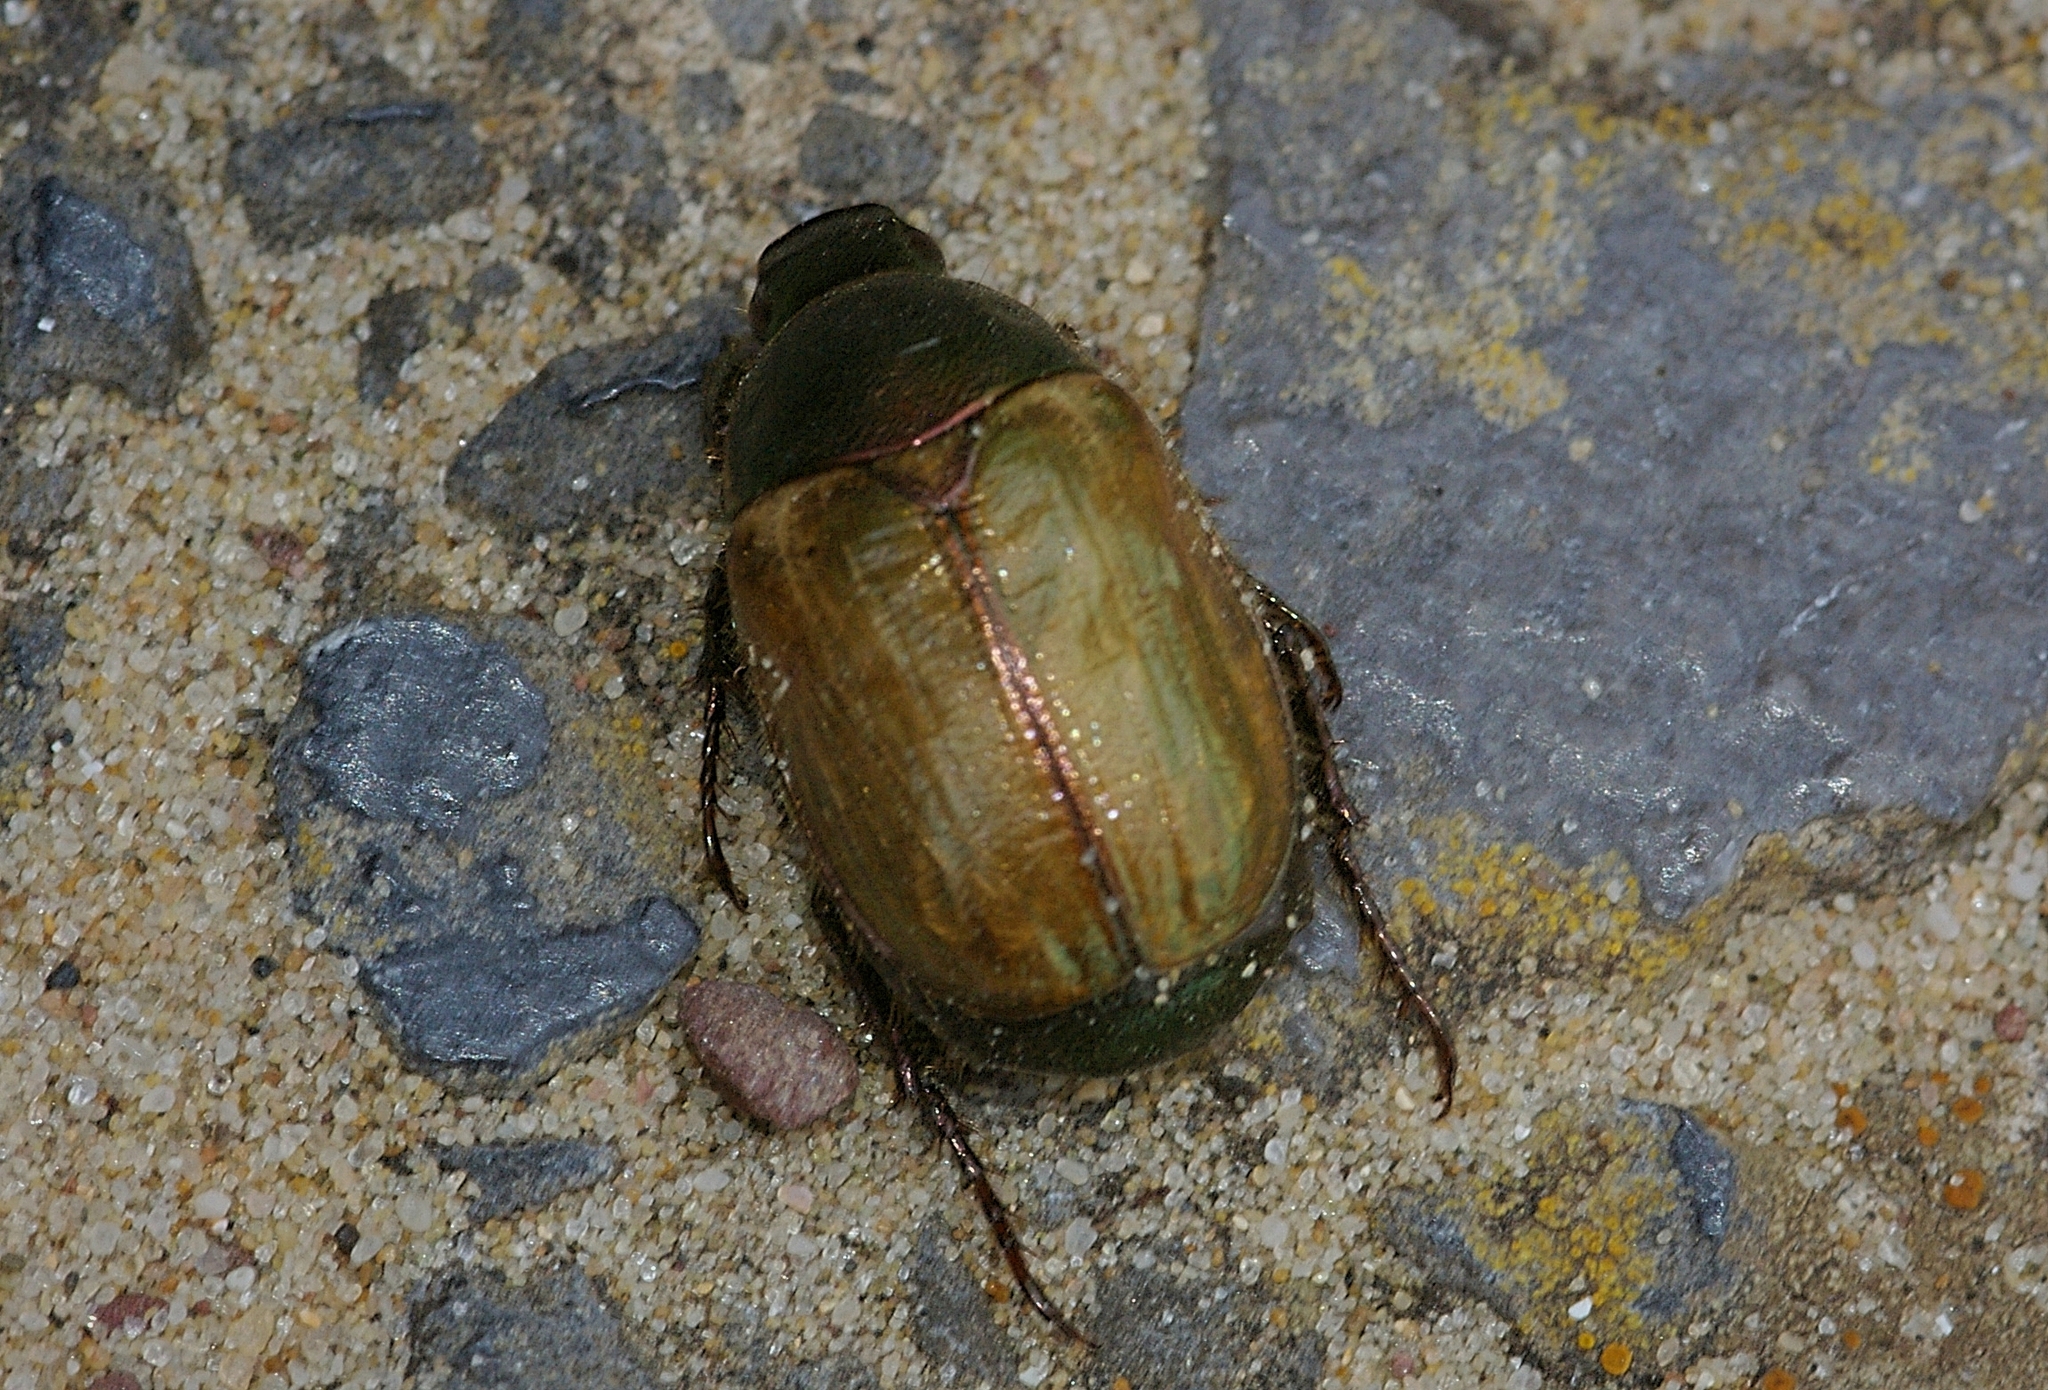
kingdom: Animalia
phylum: Arthropoda
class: Insecta
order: Coleoptera
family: Scarabaeidae
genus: Anomala
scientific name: Anomala dubia
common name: Dune chafer
